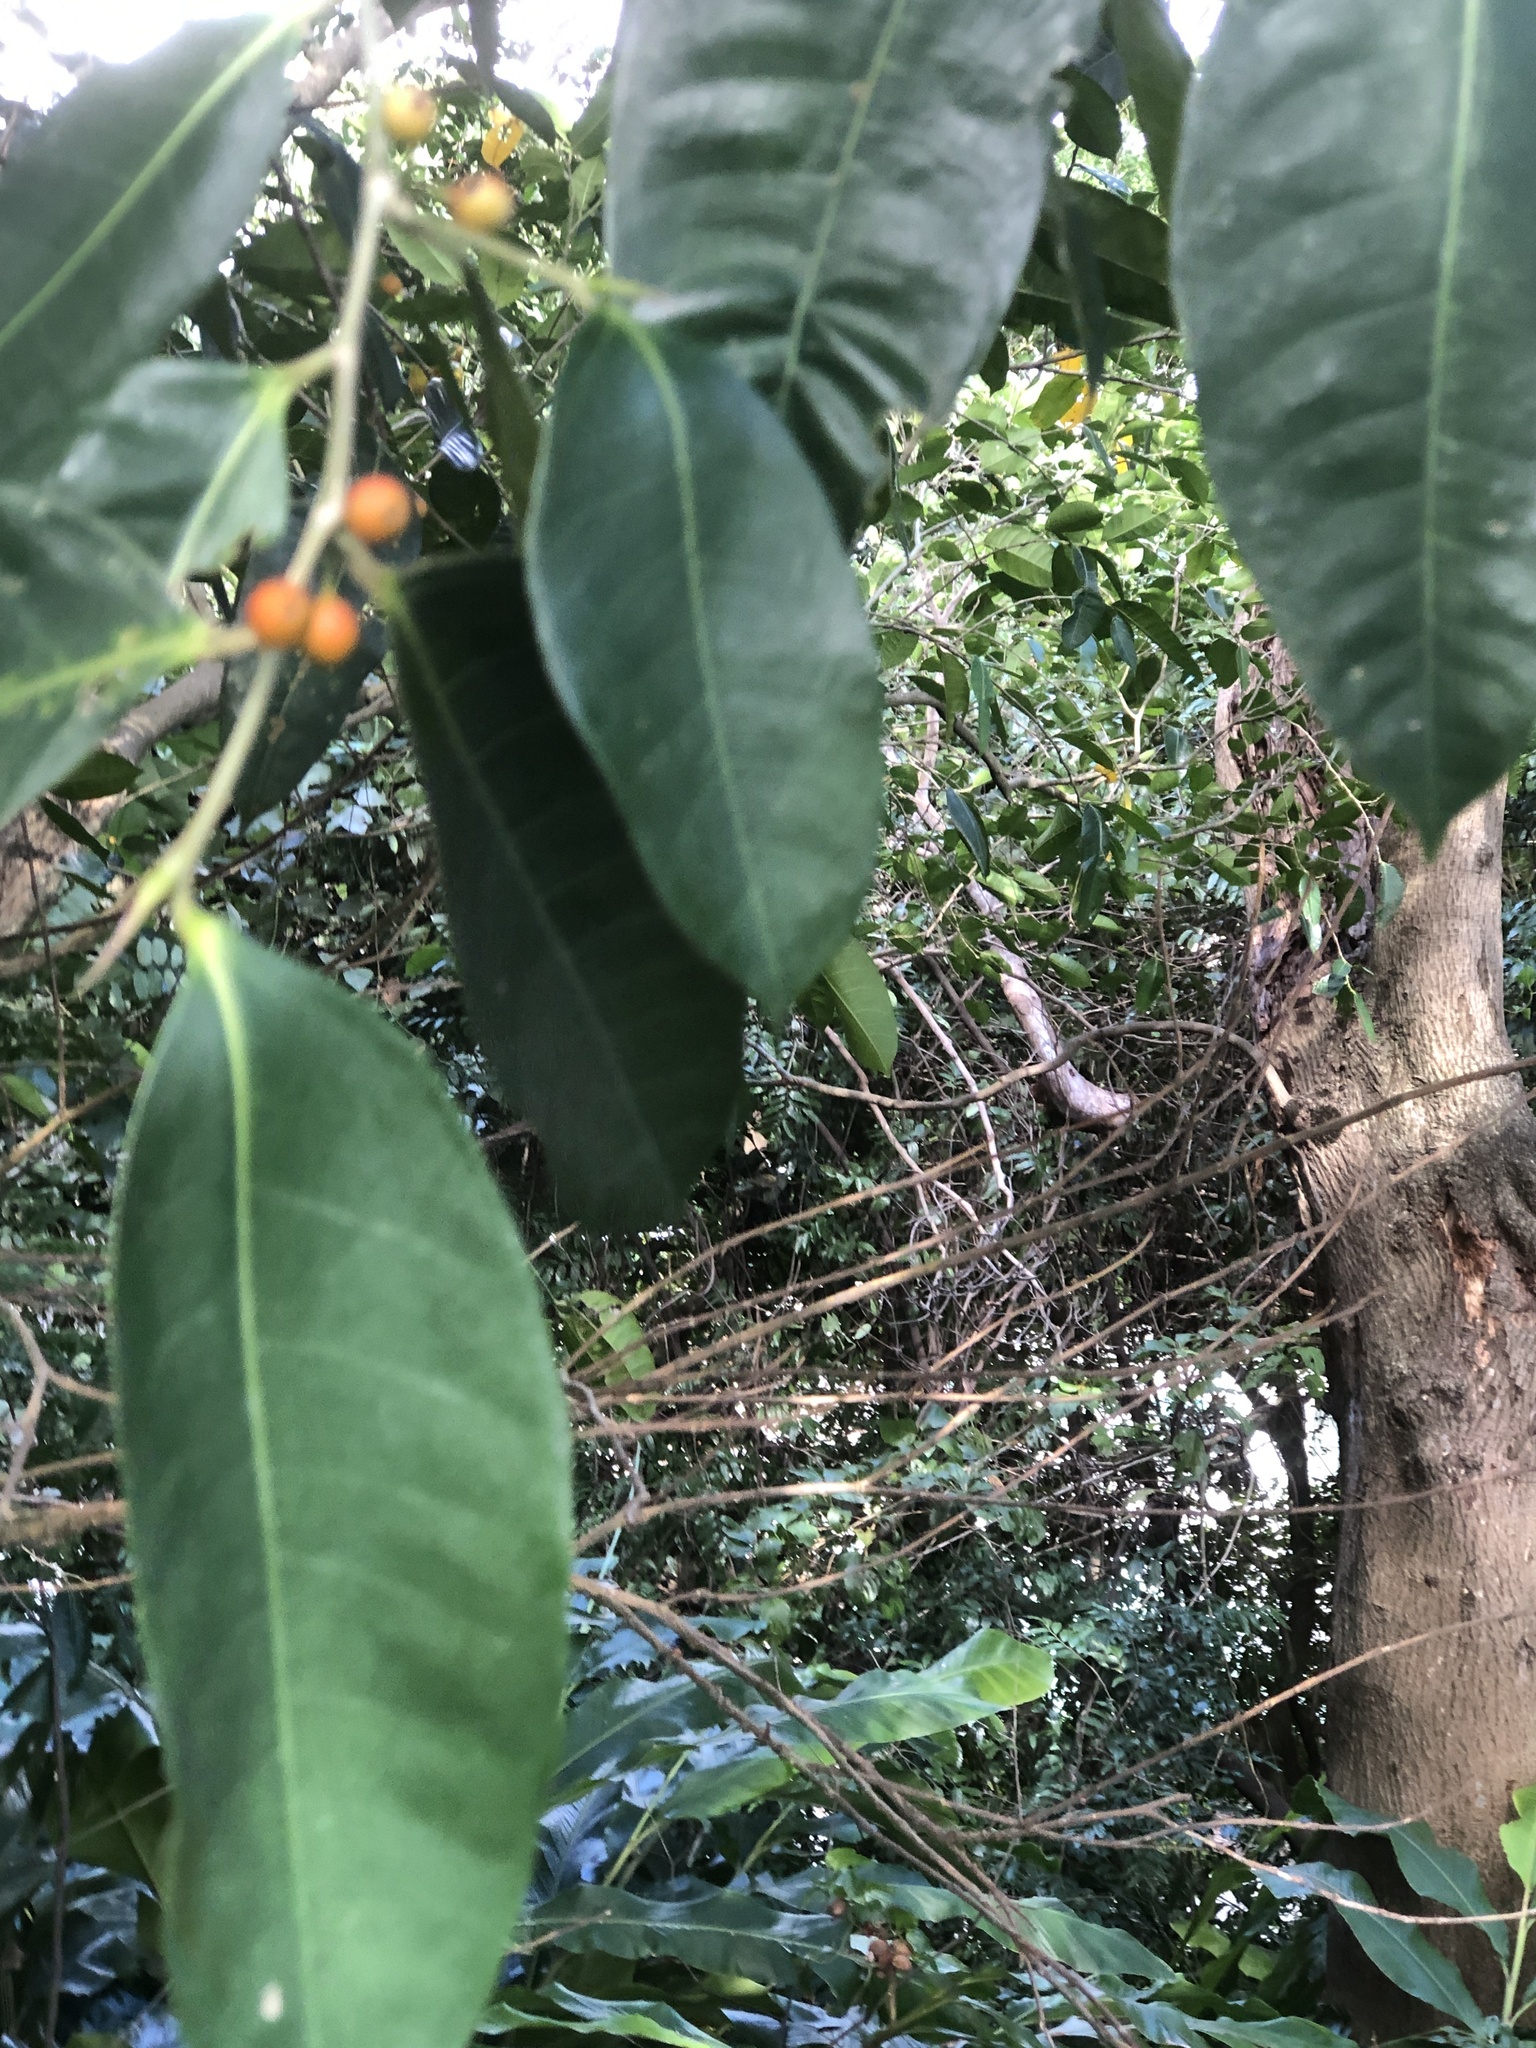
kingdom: Plantae
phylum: Tracheophyta
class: Magnoliopsida
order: Rosales
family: Moraceae
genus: Ficus
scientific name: Ficus virgata
